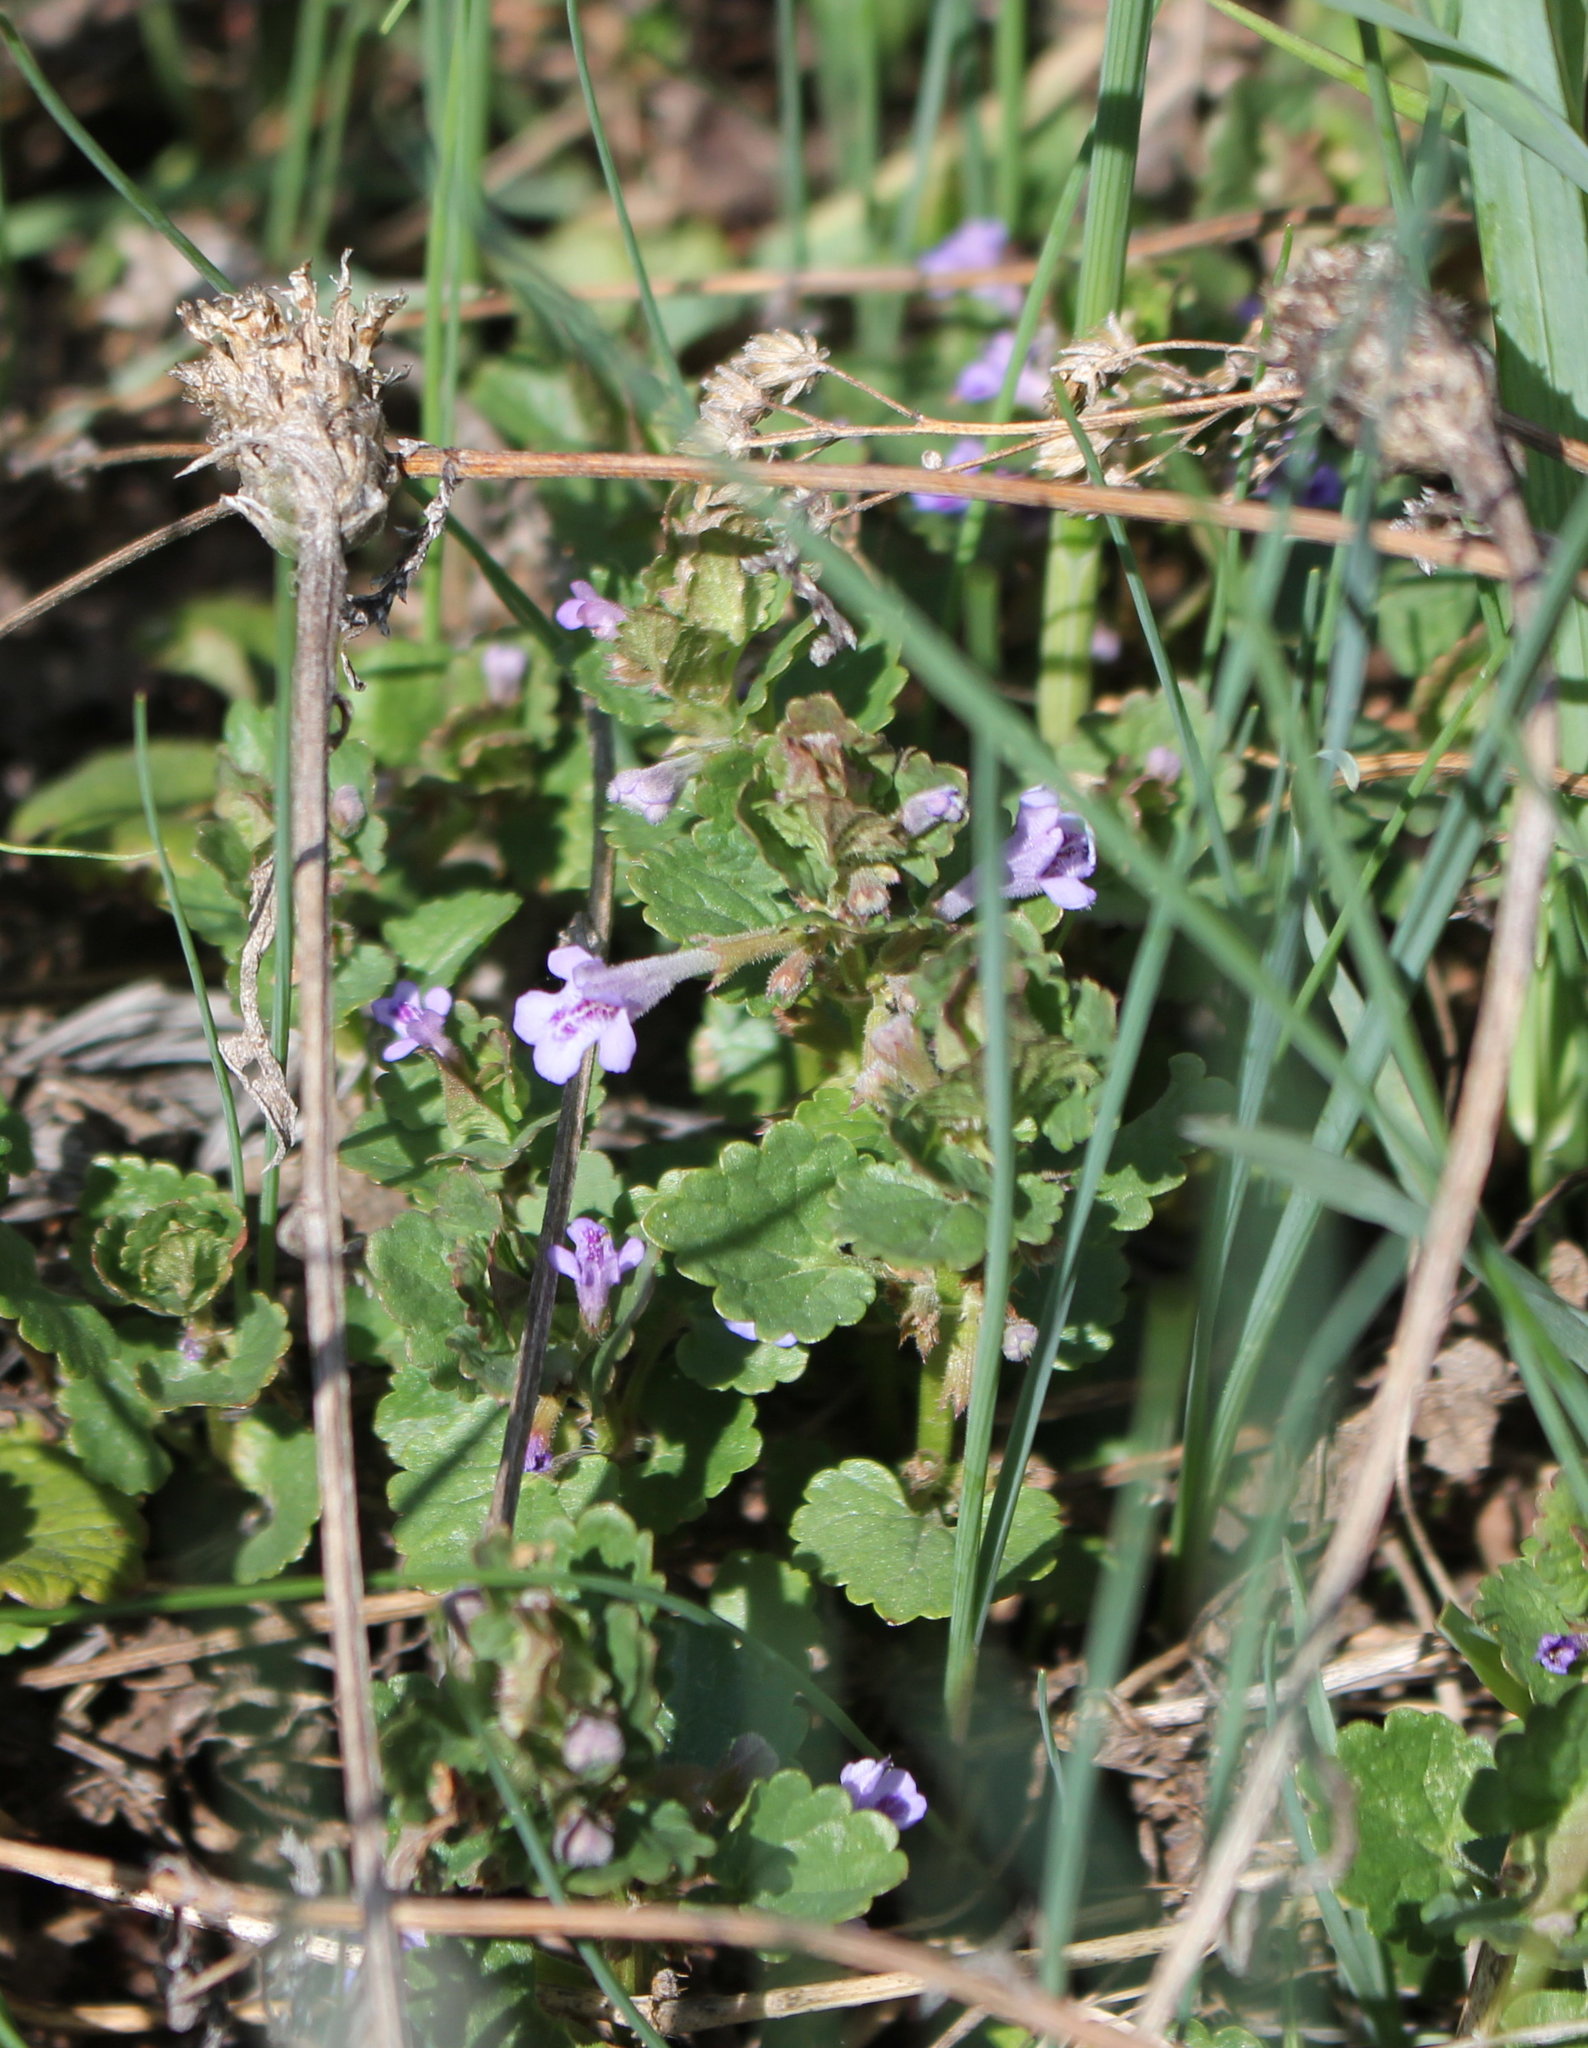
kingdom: Plantae
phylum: Tracheophyta
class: Magnoliopsida
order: Lamiales
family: Lamiaceae
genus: Glechoma
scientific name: Glechoma hederacea
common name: Ground ivy
